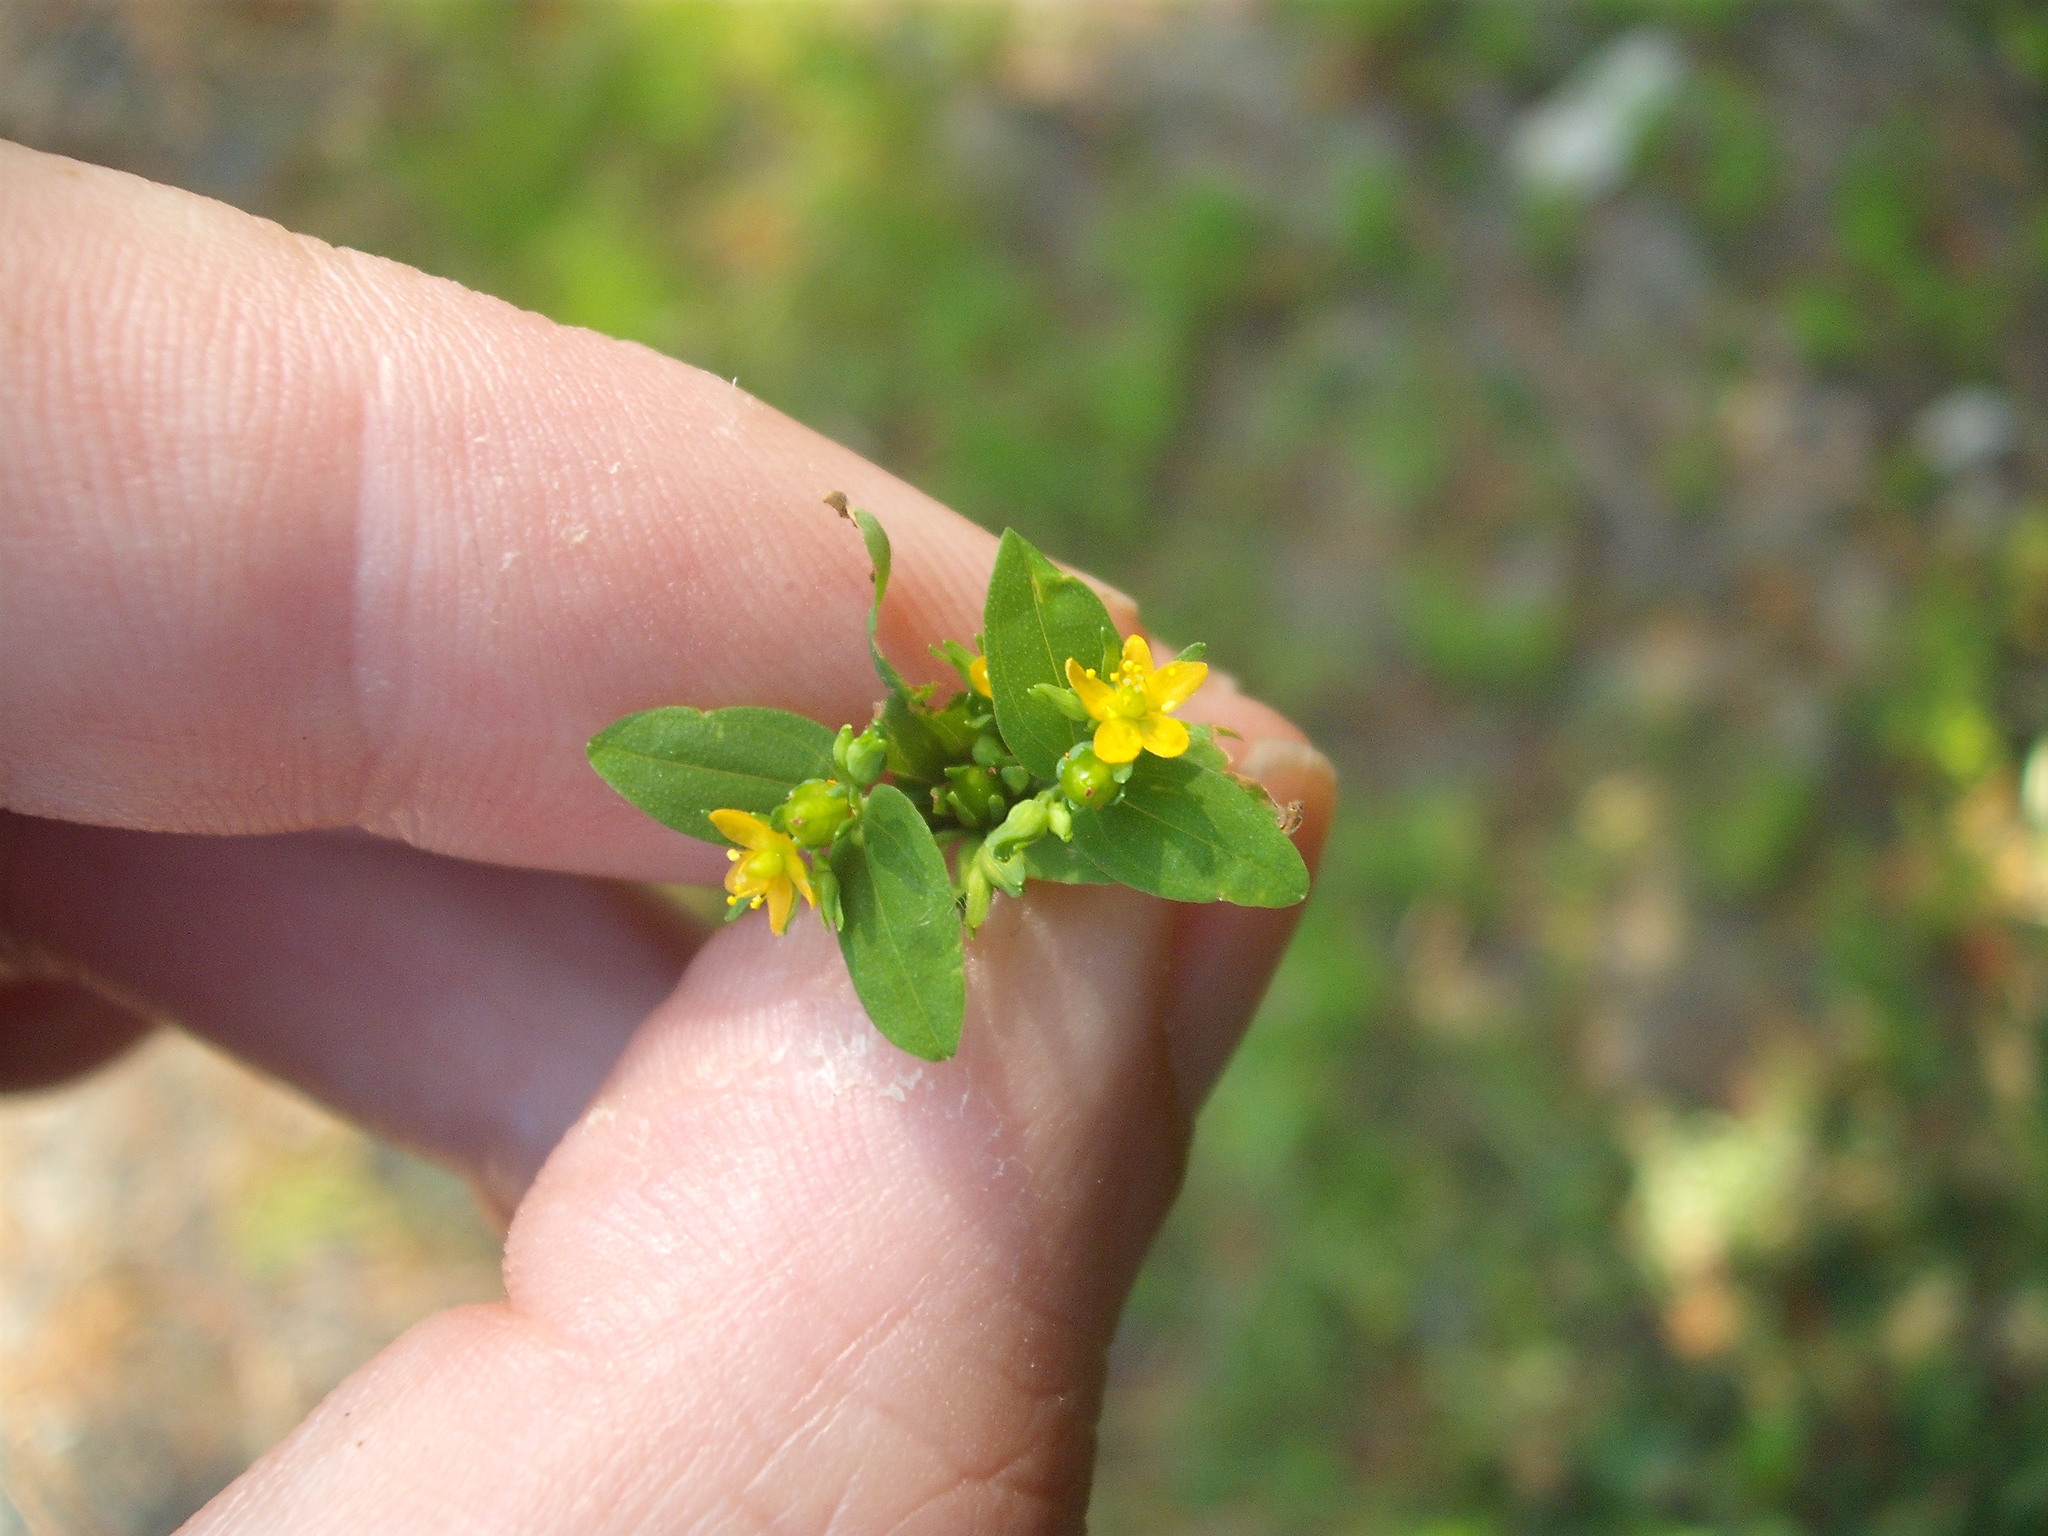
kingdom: Plantae
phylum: Tracheophyta
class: Magnoliopsida
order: Malpighiales
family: Hypericaceae
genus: Hypericum
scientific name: Hypericum mutilum
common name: Dwarf st. john's-wort
